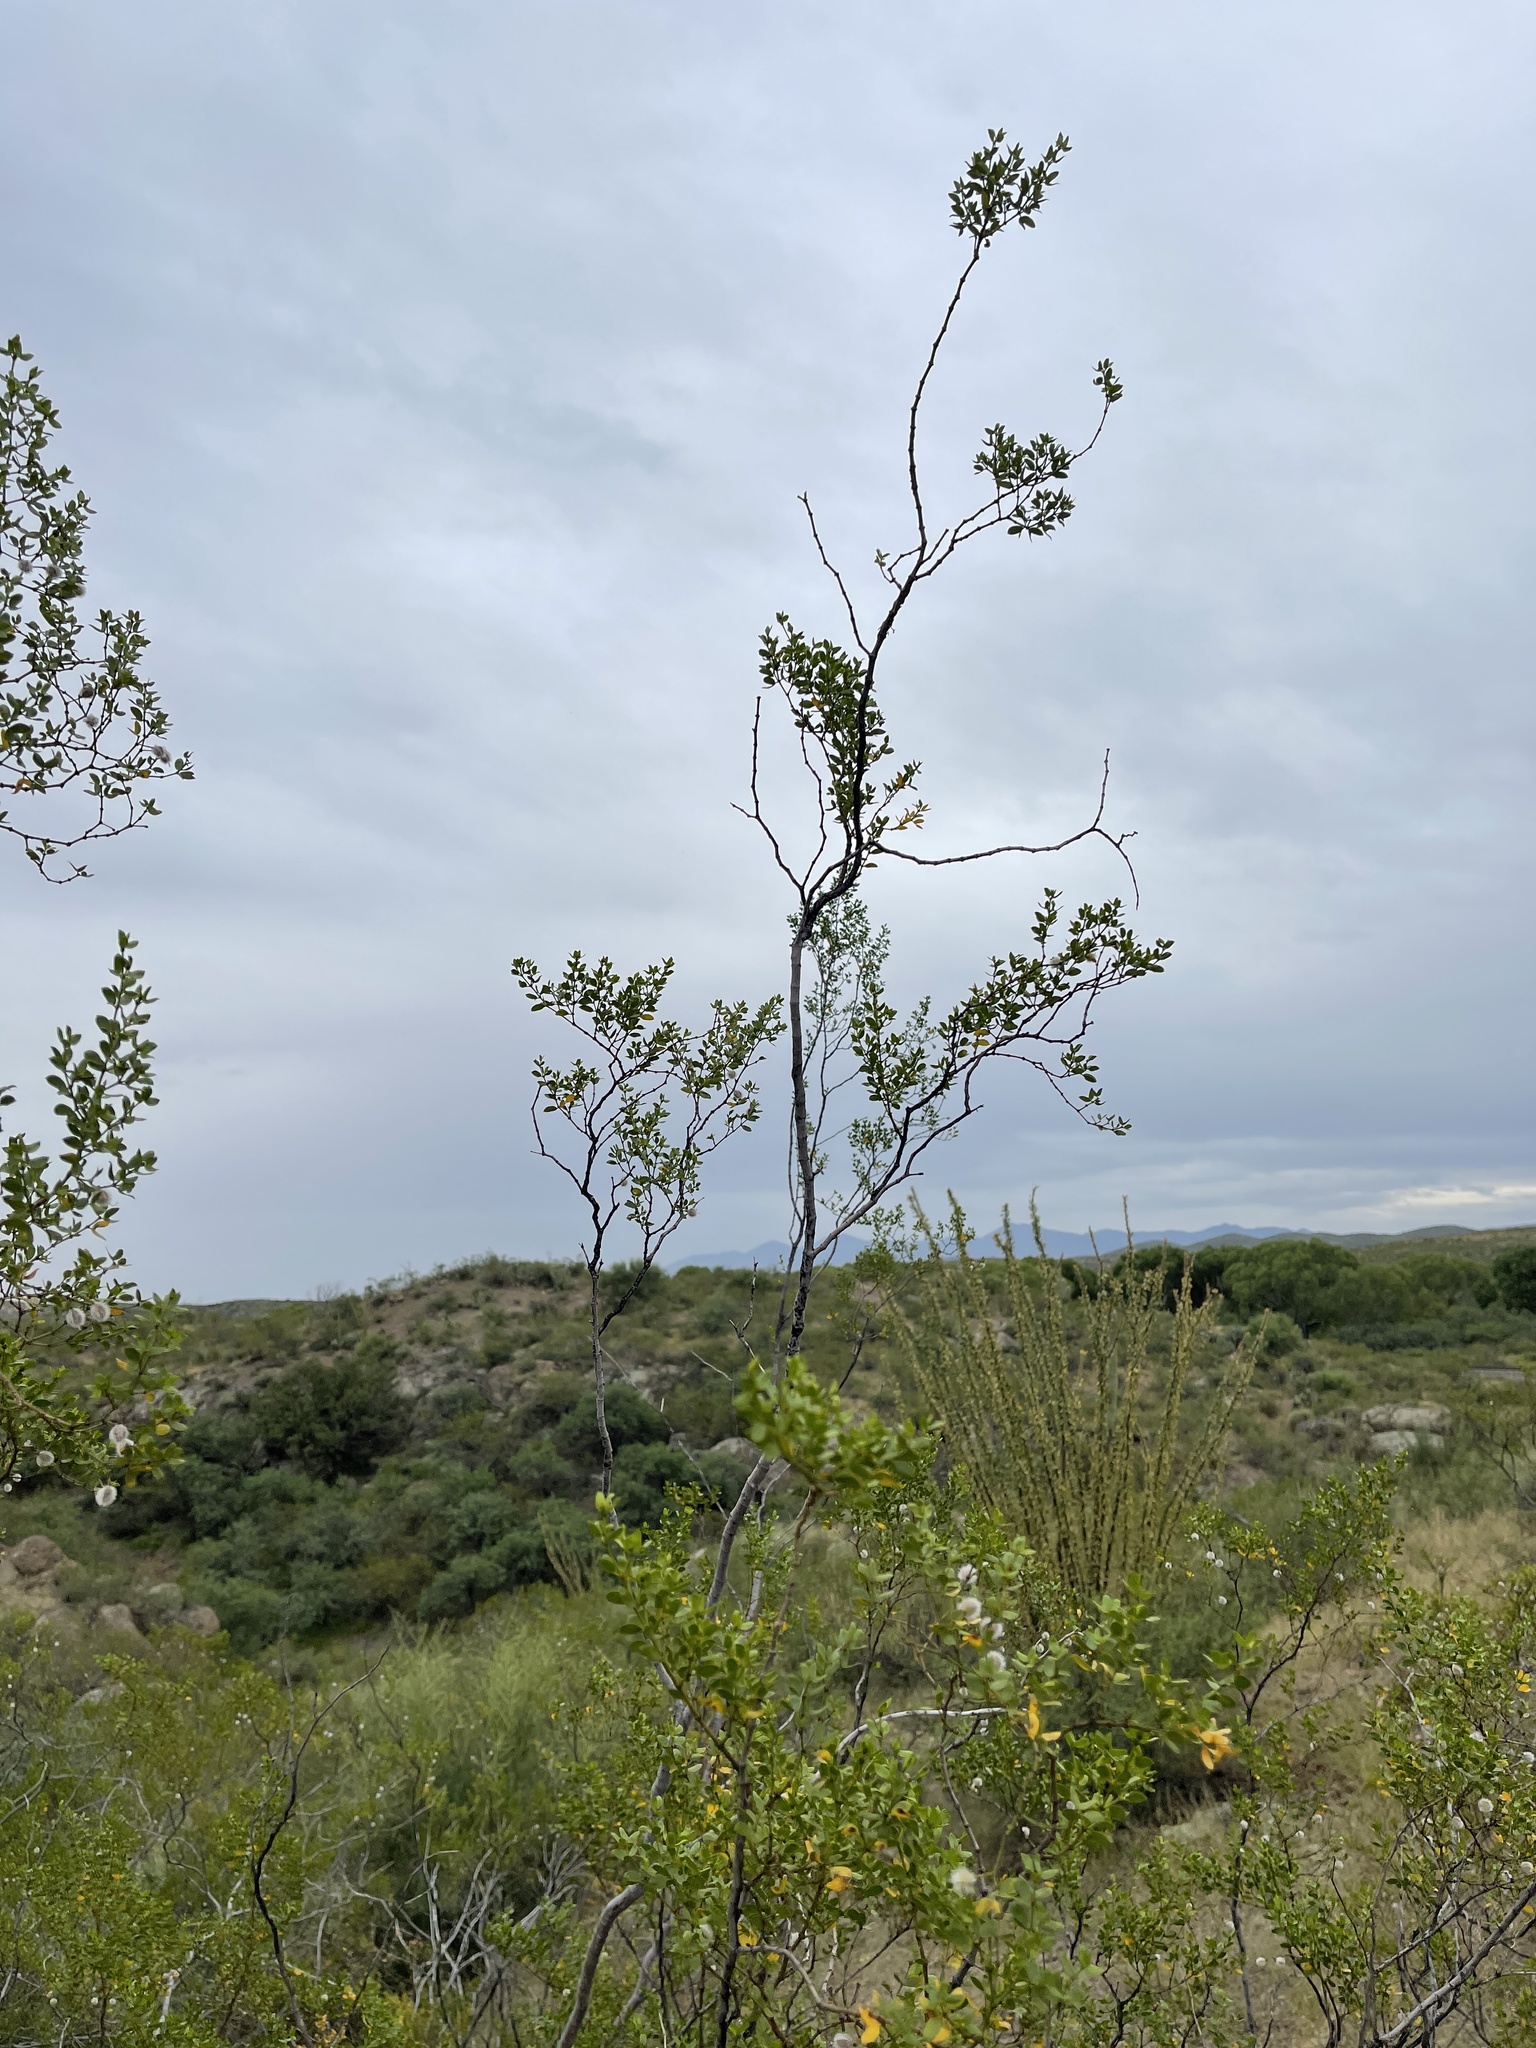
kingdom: Plantae
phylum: Tracheophyta
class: Magnoliopsida
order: Zygophyllales
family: Zygophyllaceae
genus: Larrea
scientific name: Larrea tridentata
